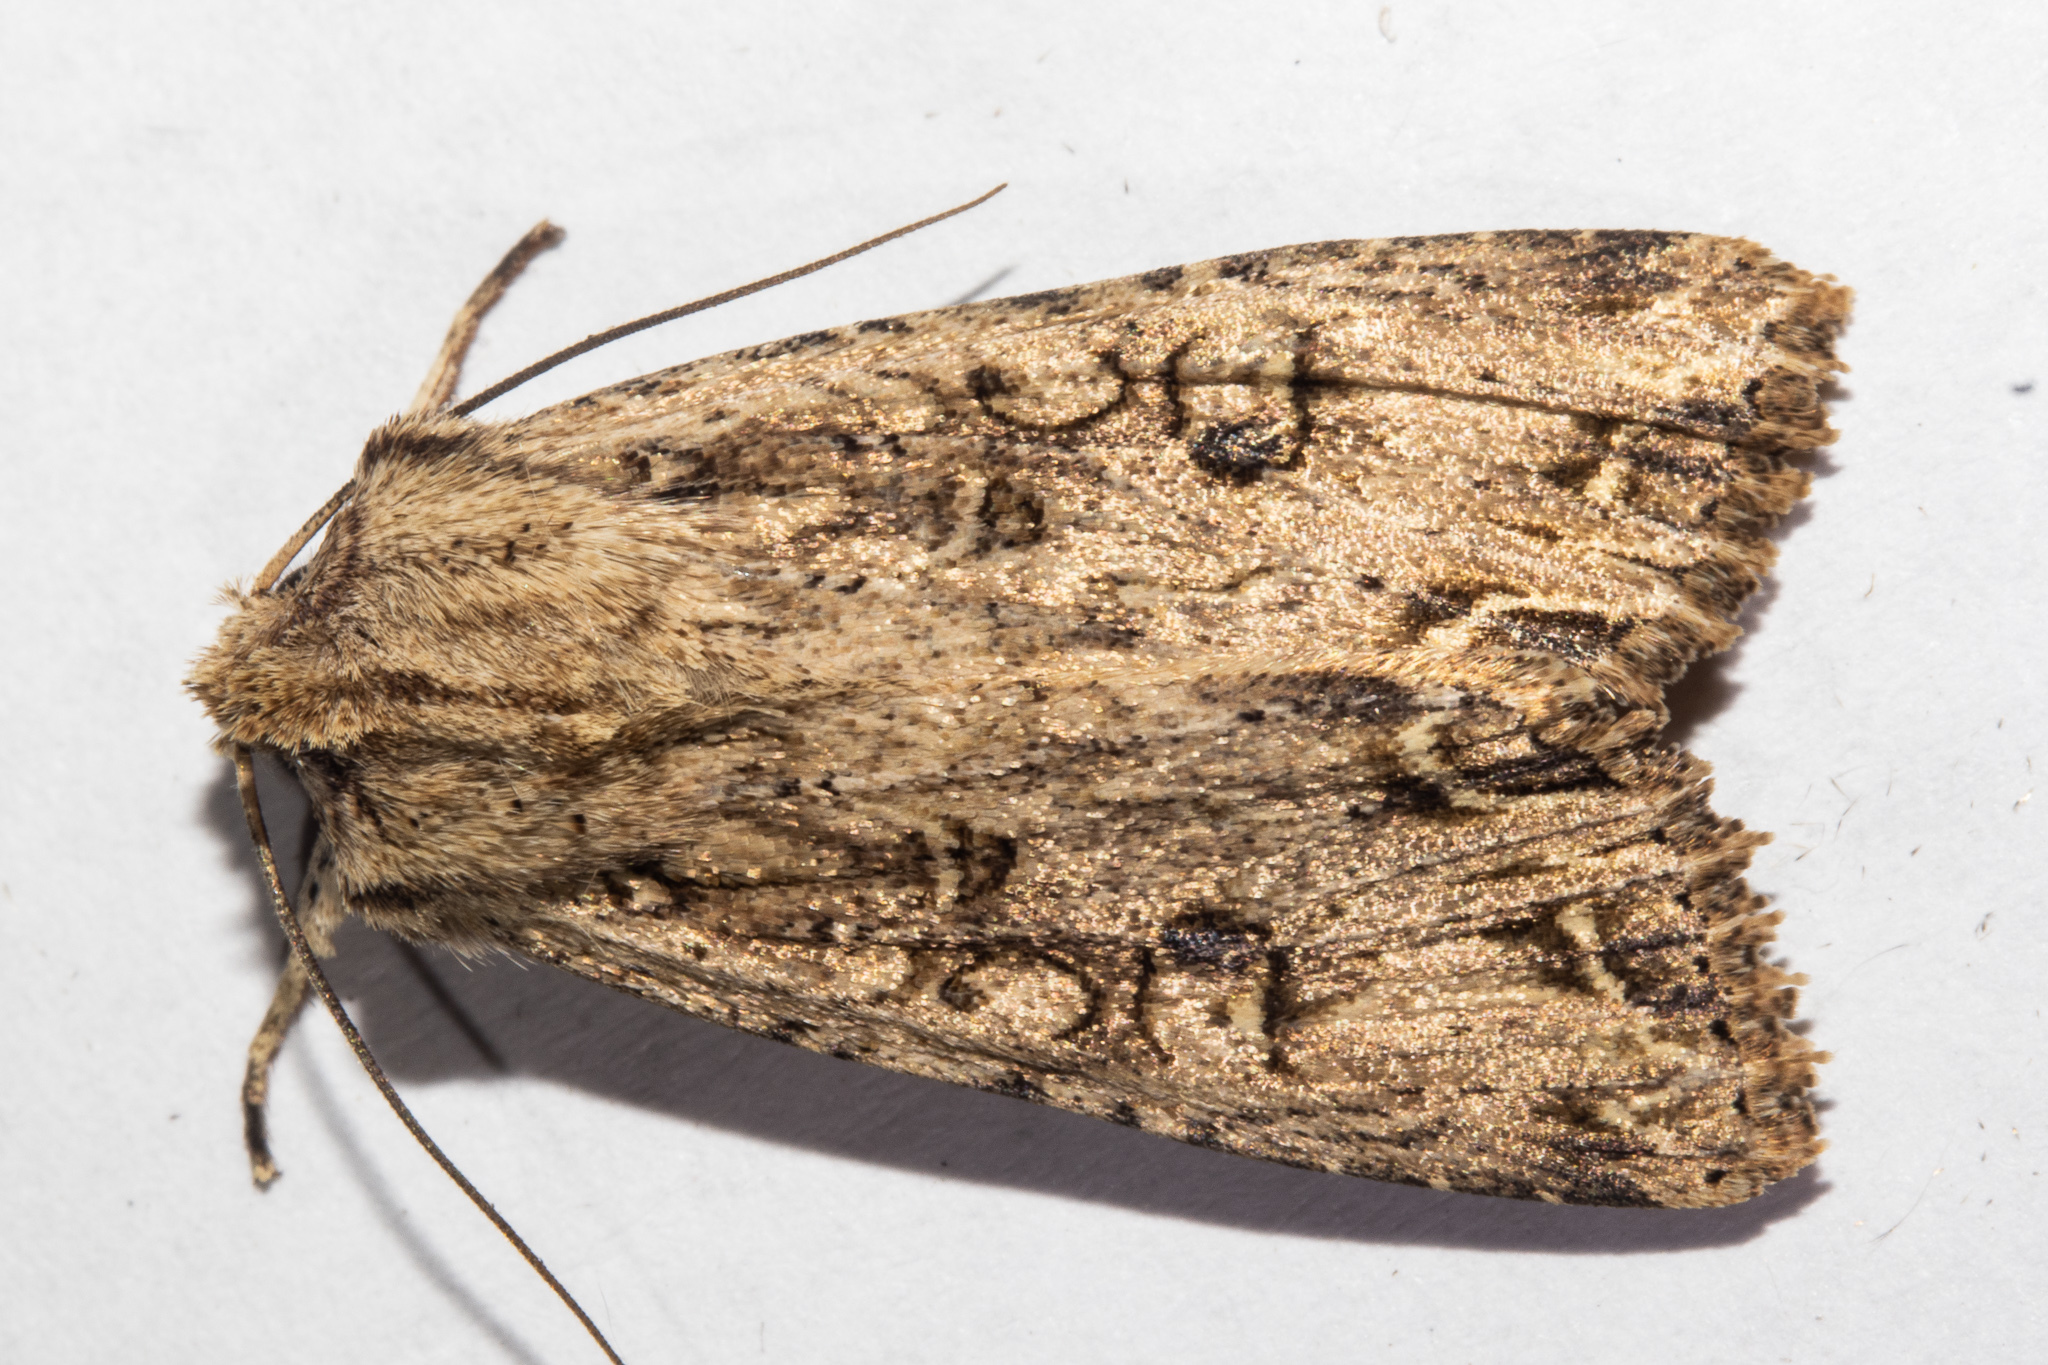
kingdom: Animalia
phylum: Arthropoda
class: Insecta
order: Lepidoptera
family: Noctuidae
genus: Ichneutica
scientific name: Ichneutica lignana
